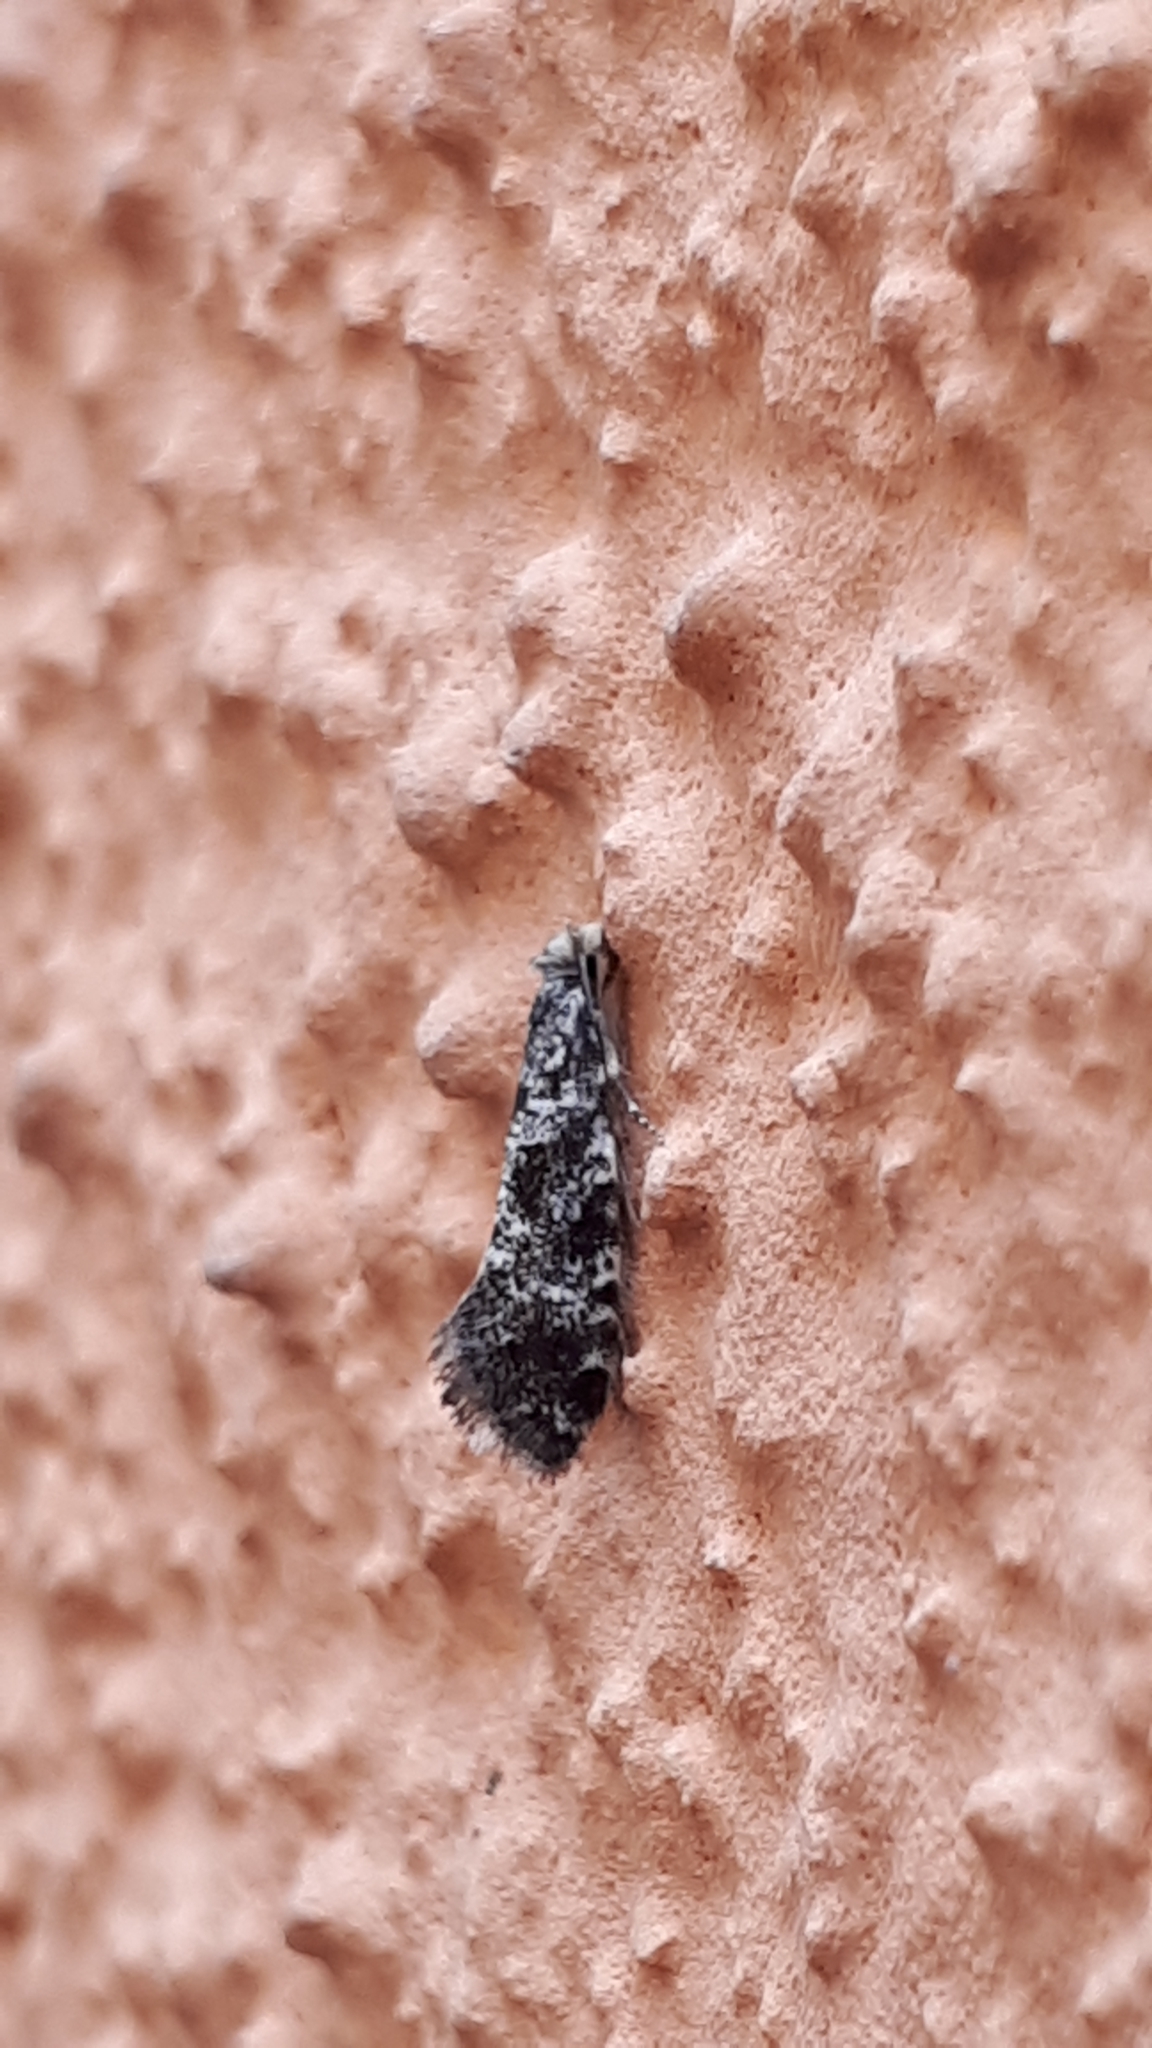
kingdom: Animalia
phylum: Arthropoda
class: Insecta
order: Lepidoptera
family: Tineidae
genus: Nemapogon
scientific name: Nemapogon granella
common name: European grain moth
